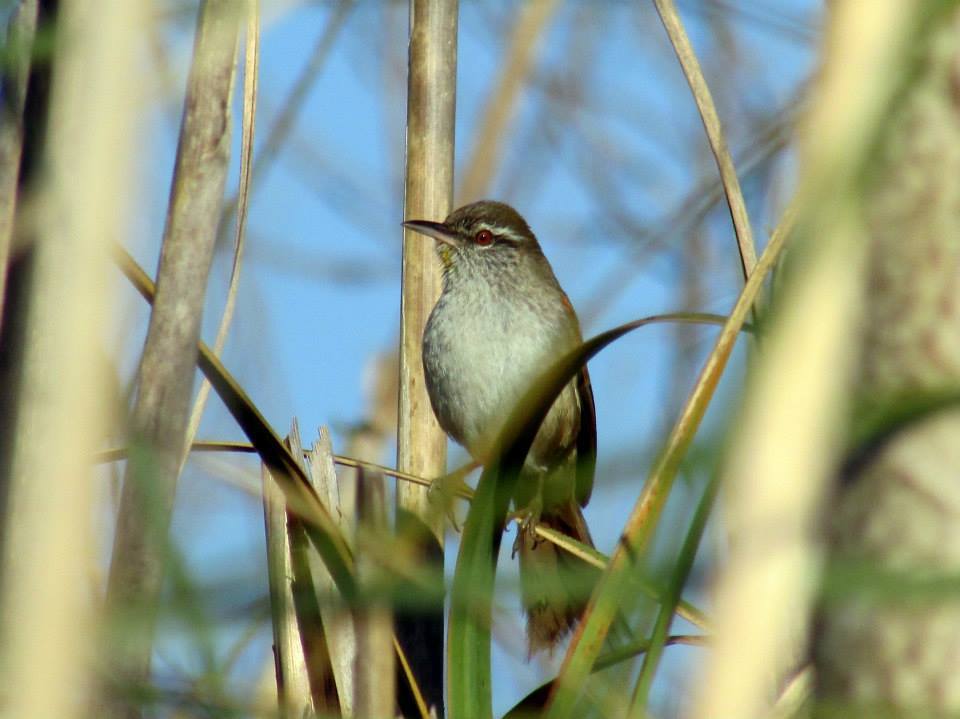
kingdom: Animalia
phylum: Chordata
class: Aves
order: Passeriformes
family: Furnariidae
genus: Cranioleuca
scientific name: Cranioleuca sulphurifera
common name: Sulphur-bearded spinetail
